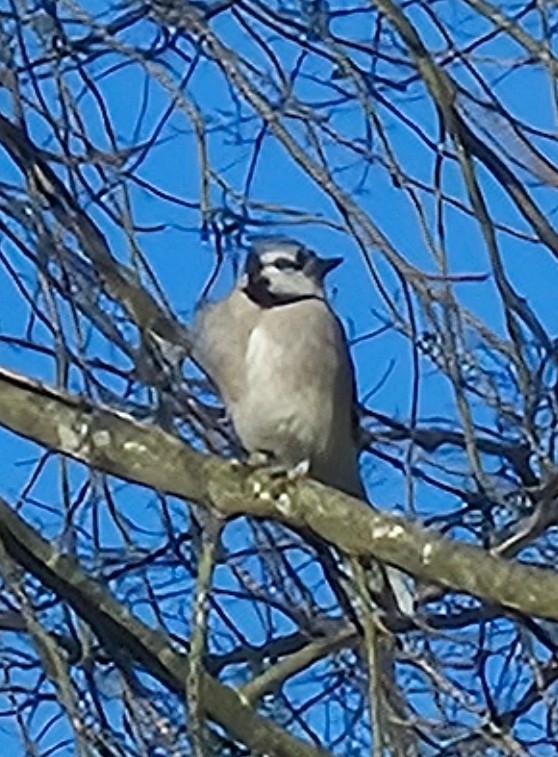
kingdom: Animalia
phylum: Chordata
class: Aves
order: Passeriformes
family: Corvidae
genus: Cyanocitta
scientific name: Cyanocitta cristata
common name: Blue jay
